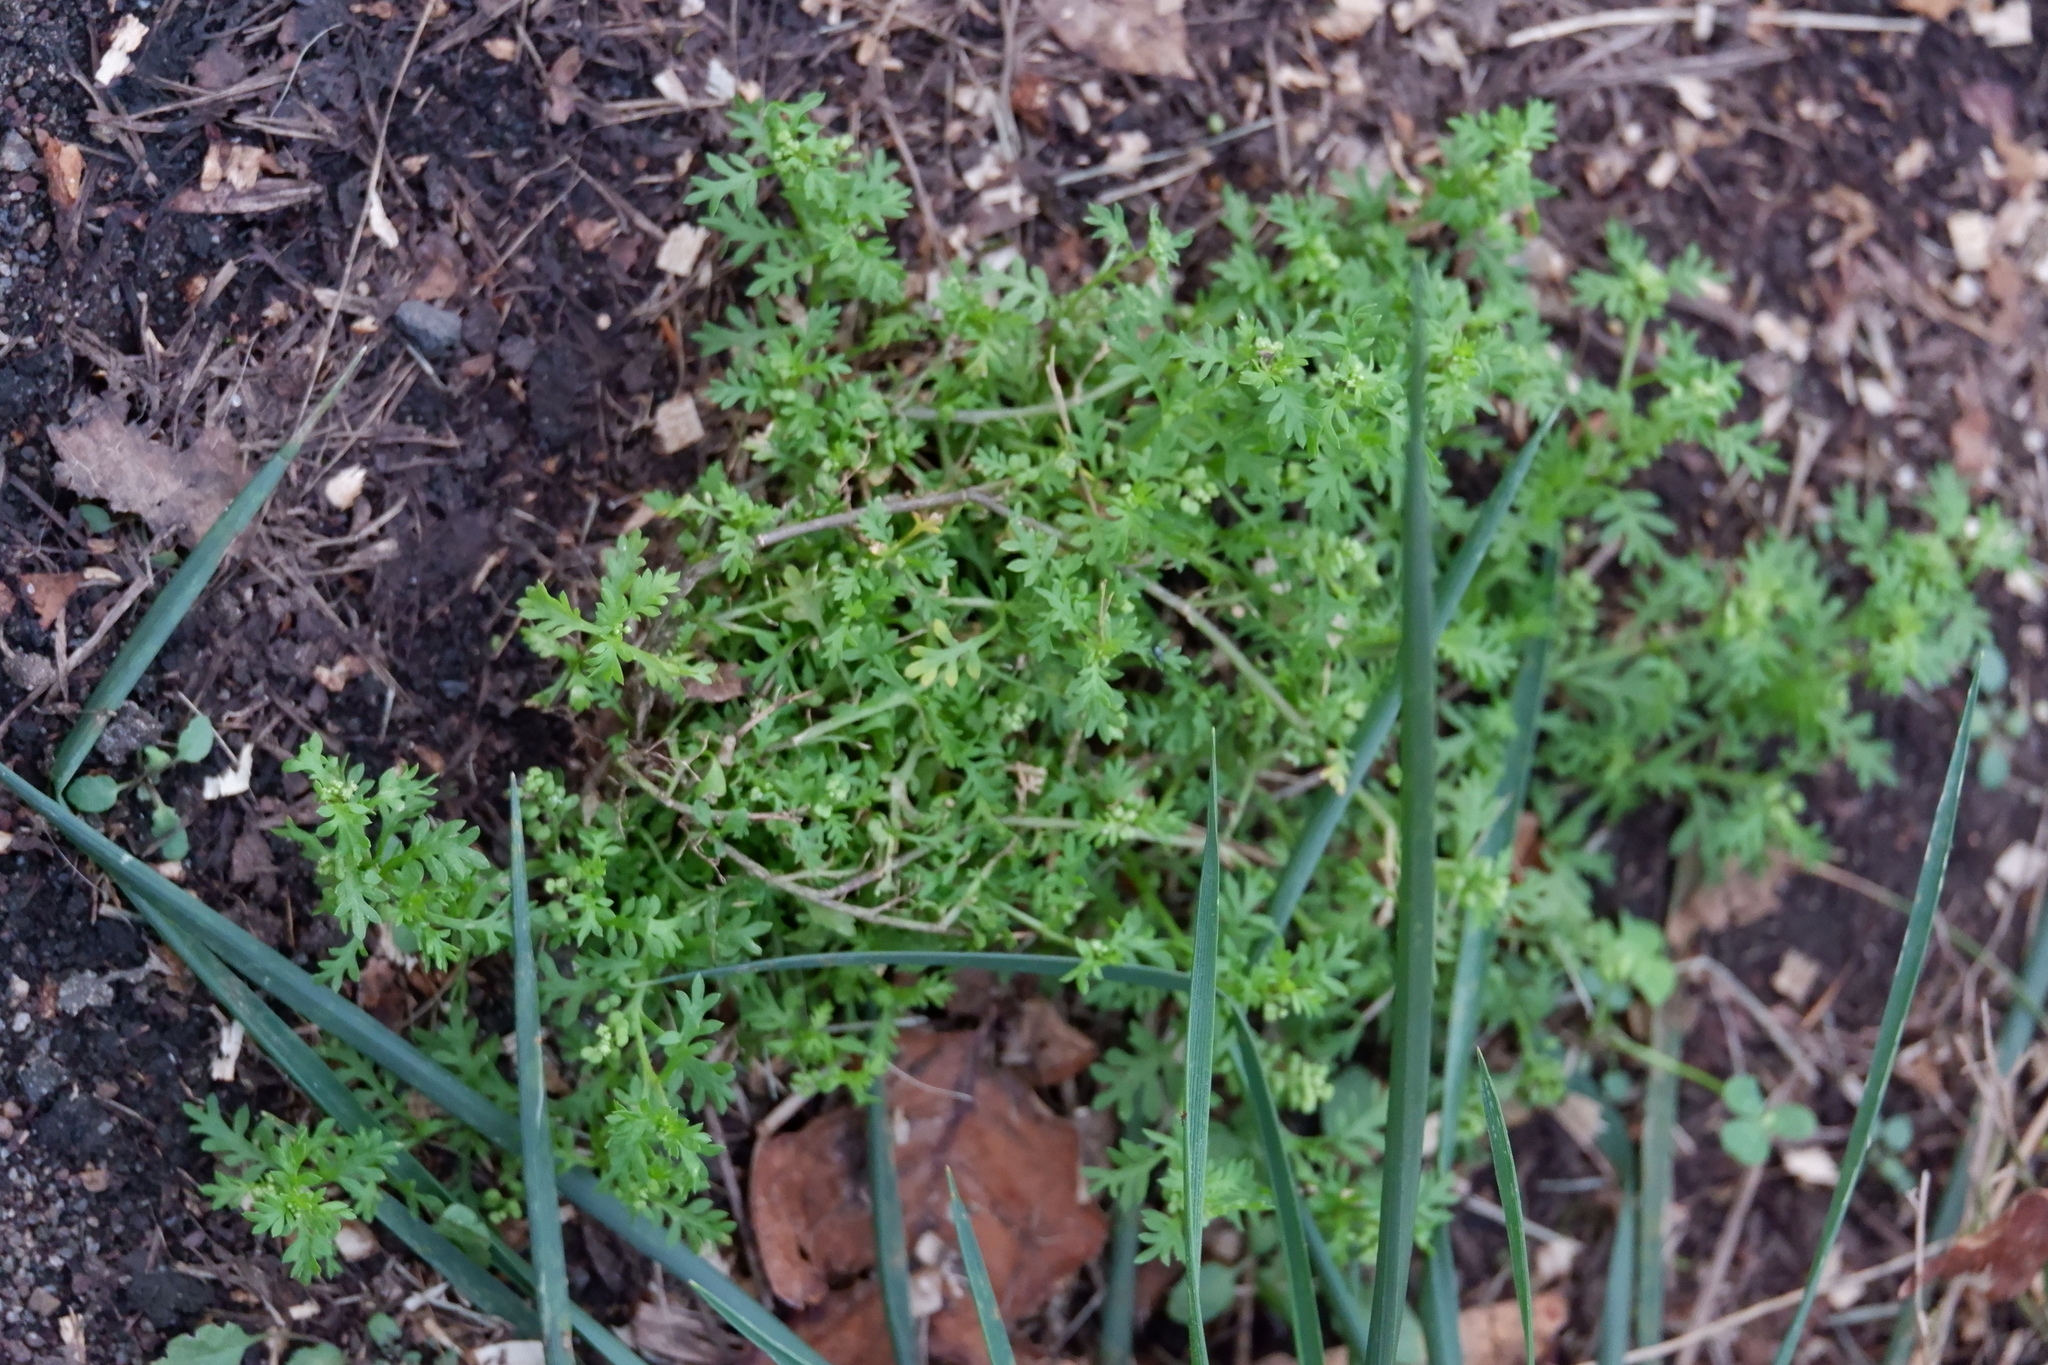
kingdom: Plantae
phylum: Tracheophyta
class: Magnoliopsida
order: Brassicales
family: Brassicaceae
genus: Lepidium
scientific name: Lepidium didymum
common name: Lesser swinecress
